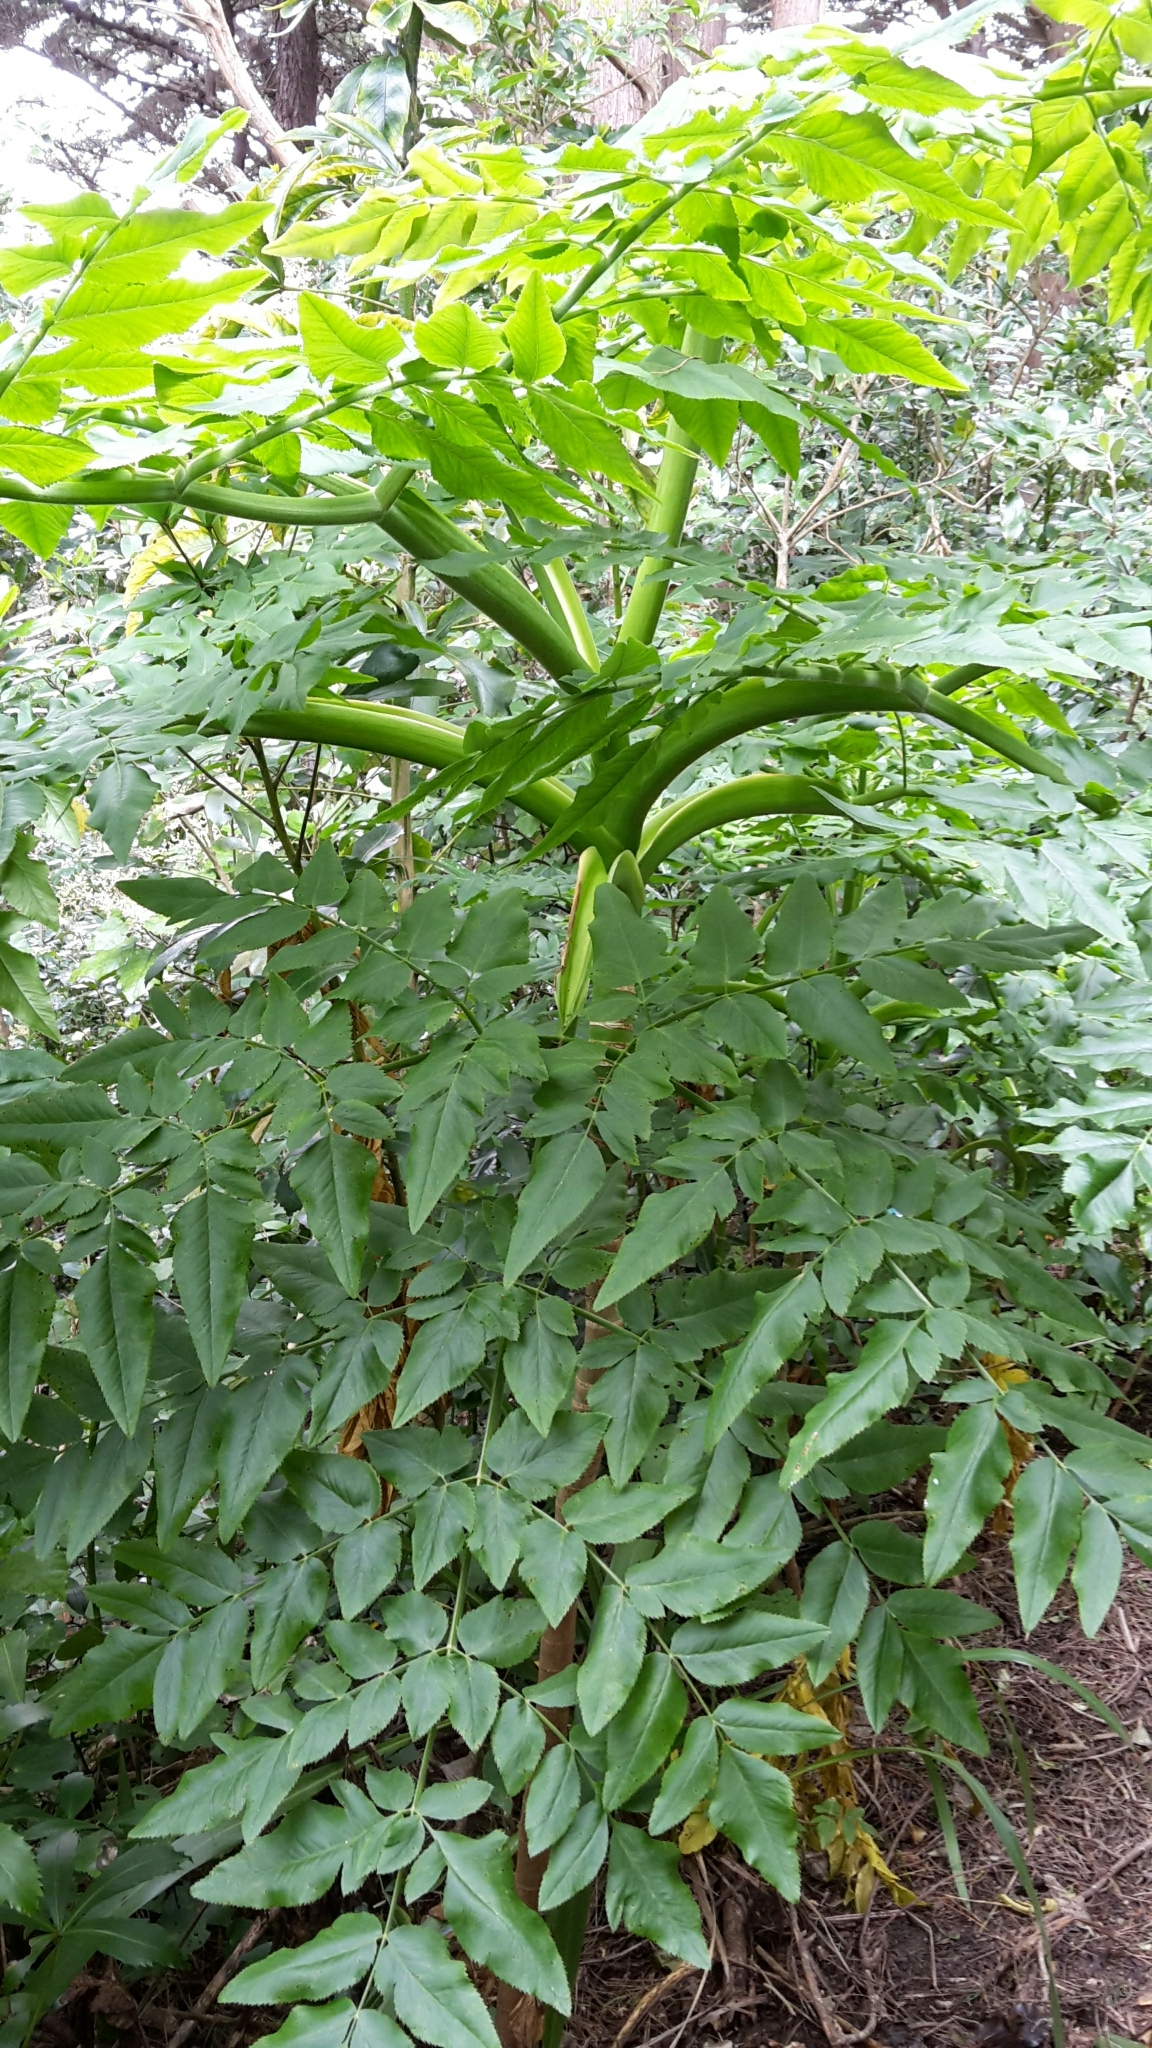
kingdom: Plantae
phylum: Tracheophyta
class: Magnoliopsida
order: Apiales
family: Apiaceae
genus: Daucus
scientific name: Daucus decipiens
